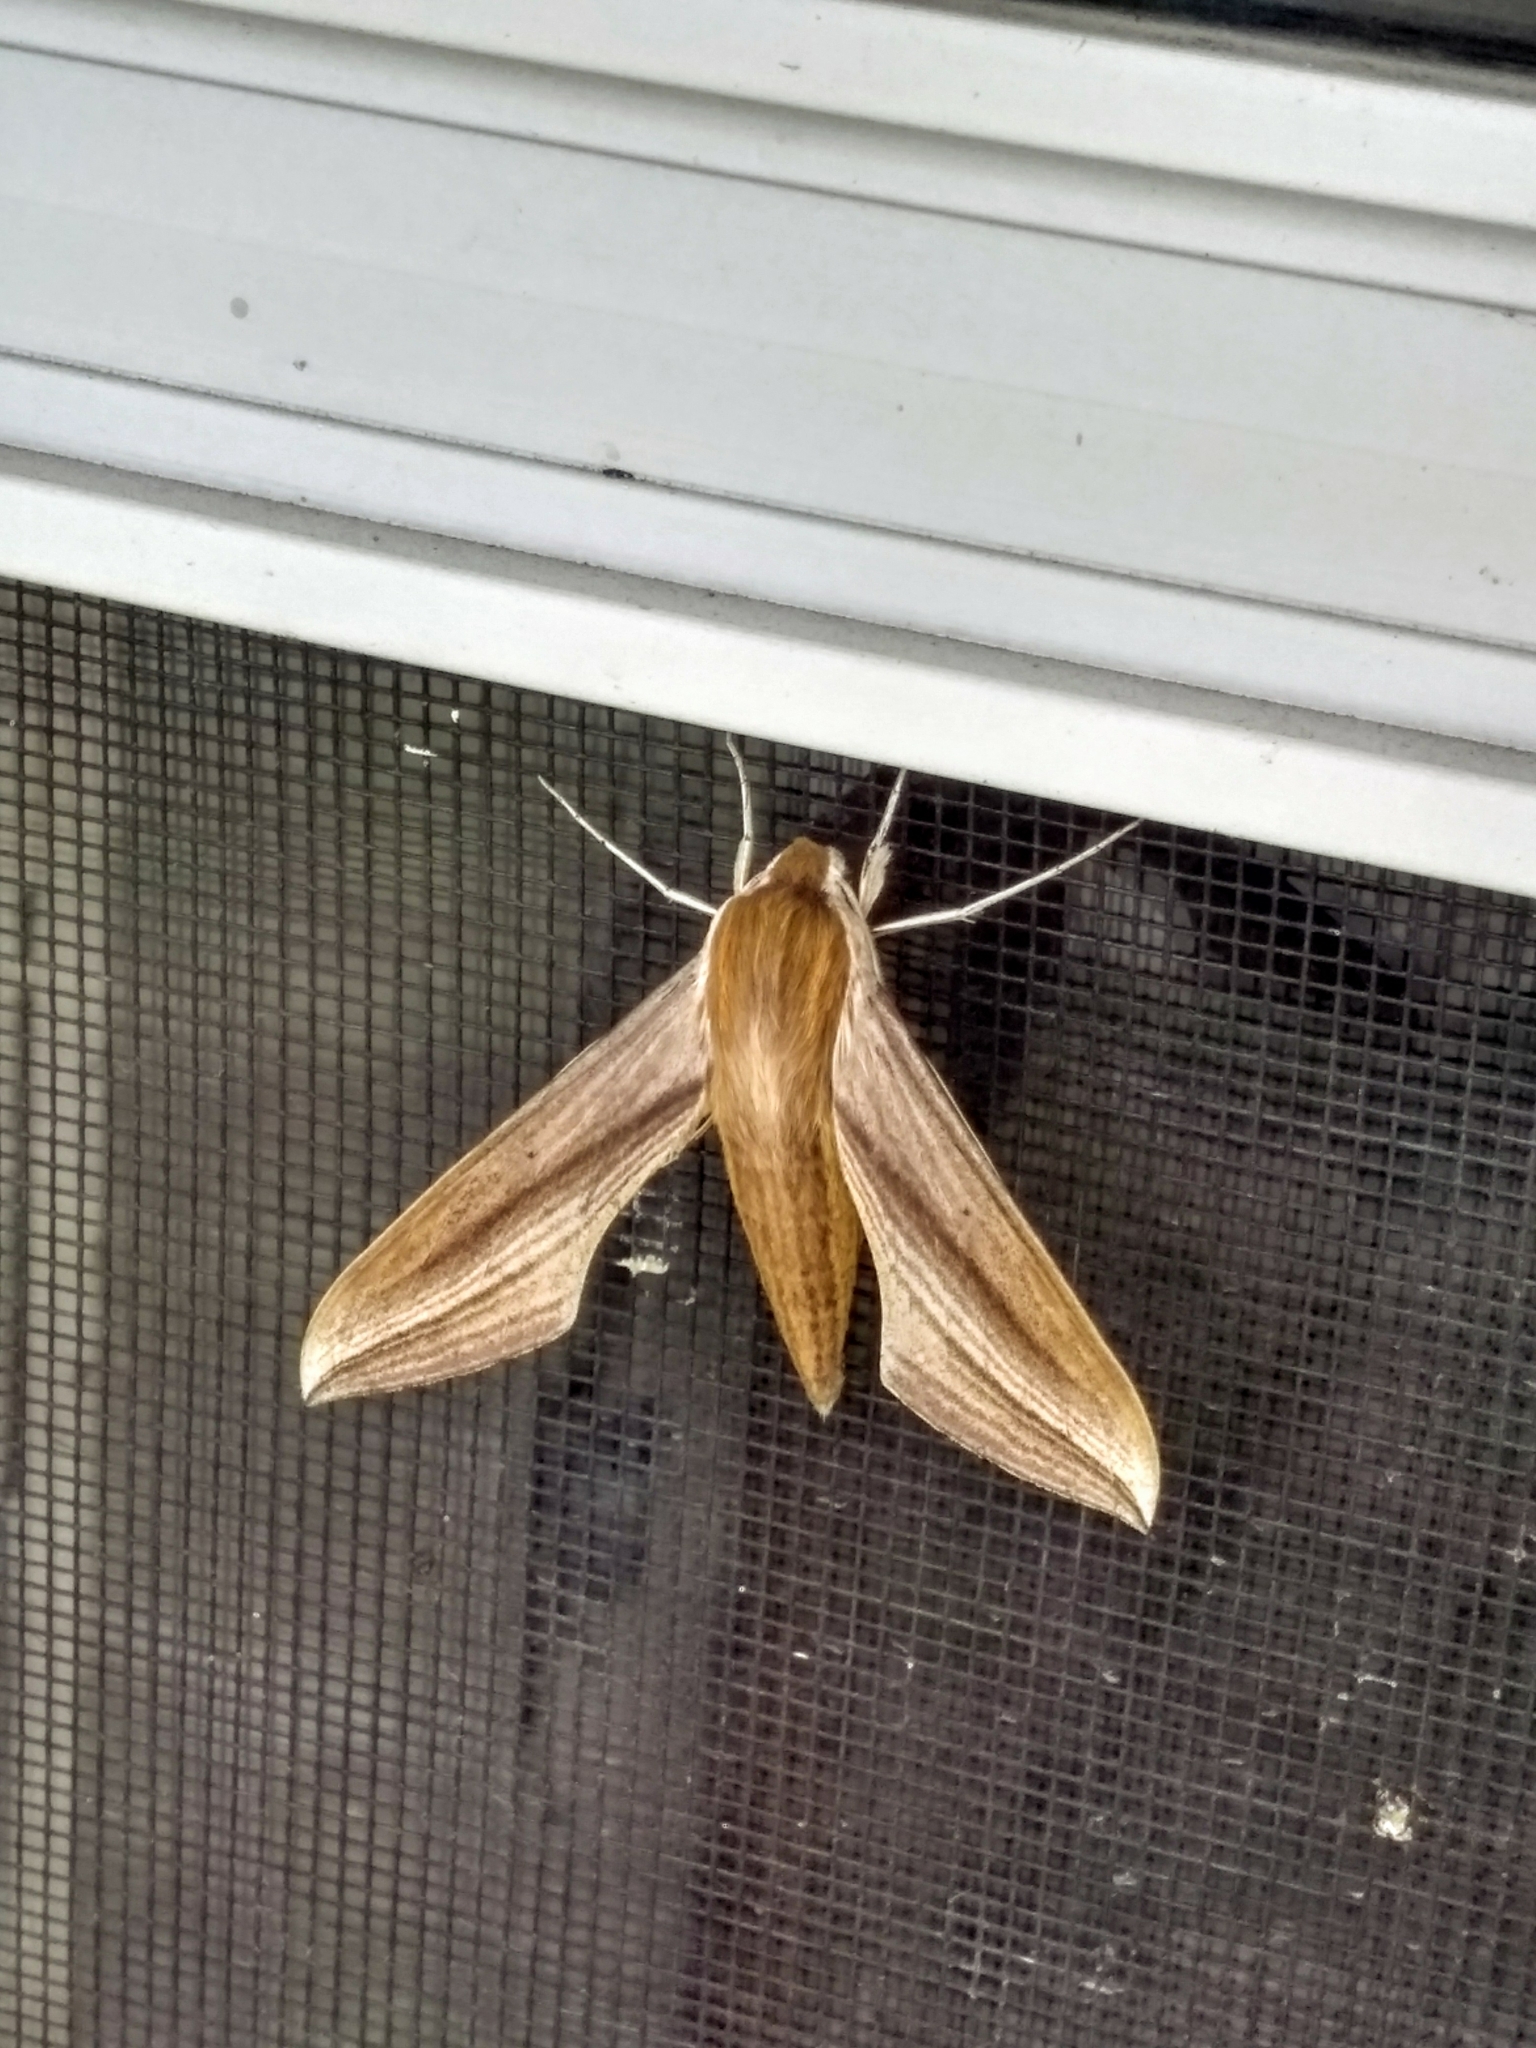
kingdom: Animalia
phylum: Arthropoda
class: Insecta
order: Lepidoptera
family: Sphingidae
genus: Xylophanes
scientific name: Xylophanes tersa
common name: Tersa sphinx
